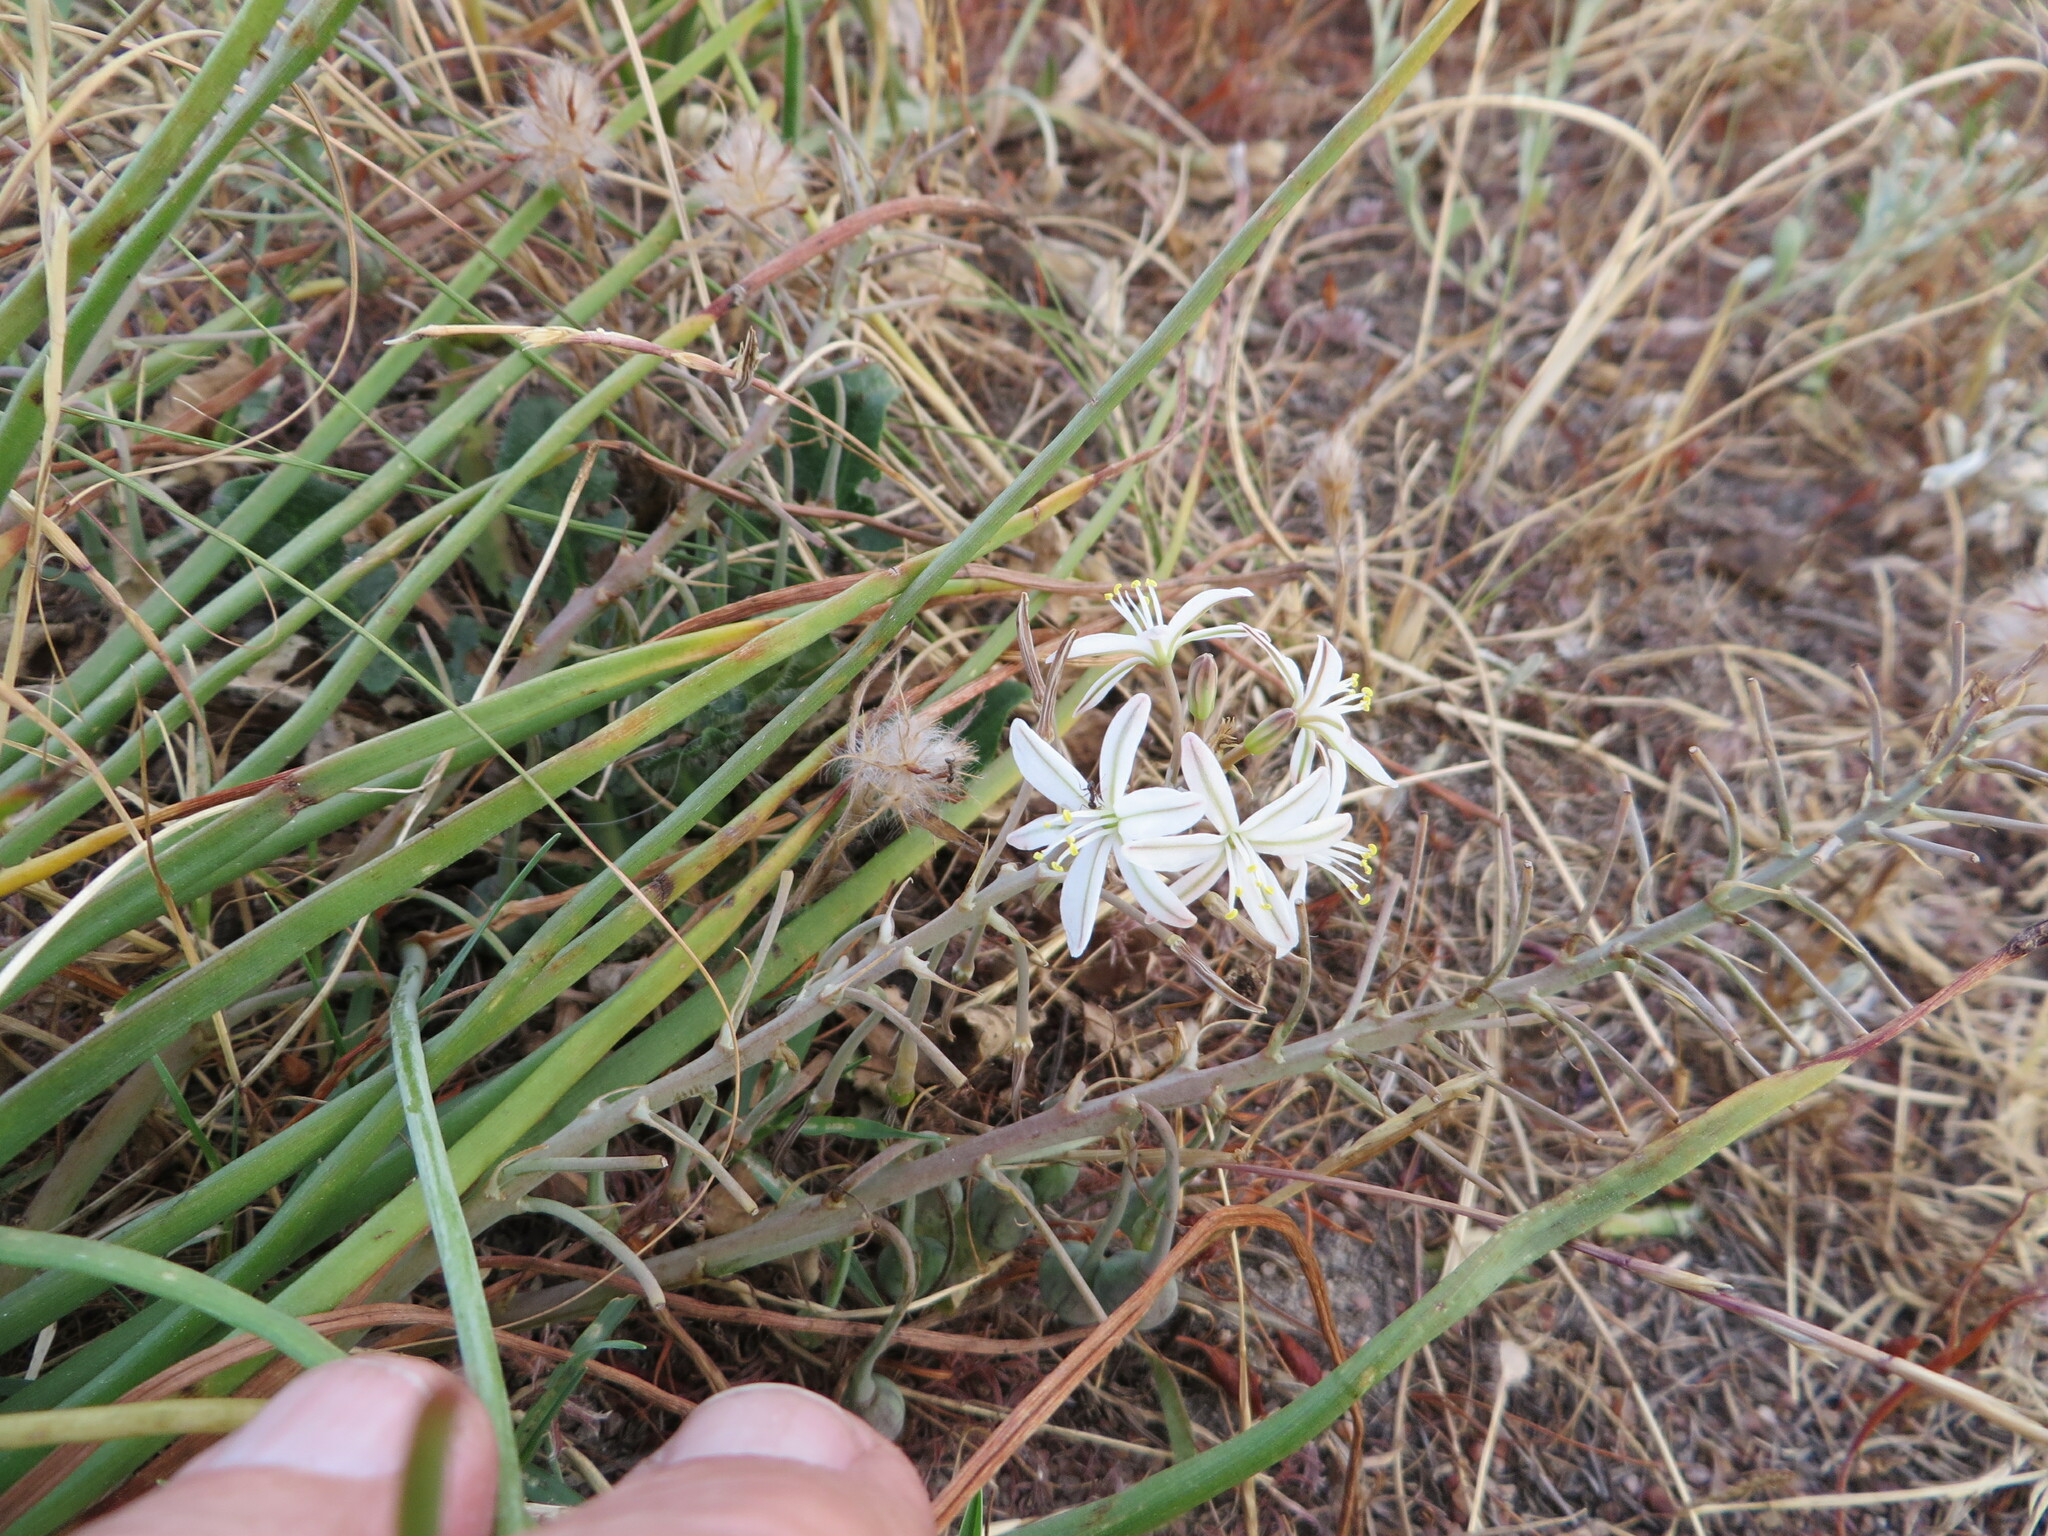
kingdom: Plantae
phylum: Tracheophyta
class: Liliopsida
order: Asparagales
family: Asphodelaceae
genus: Trachyandra
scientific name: Trachyandra chlamydophylla
